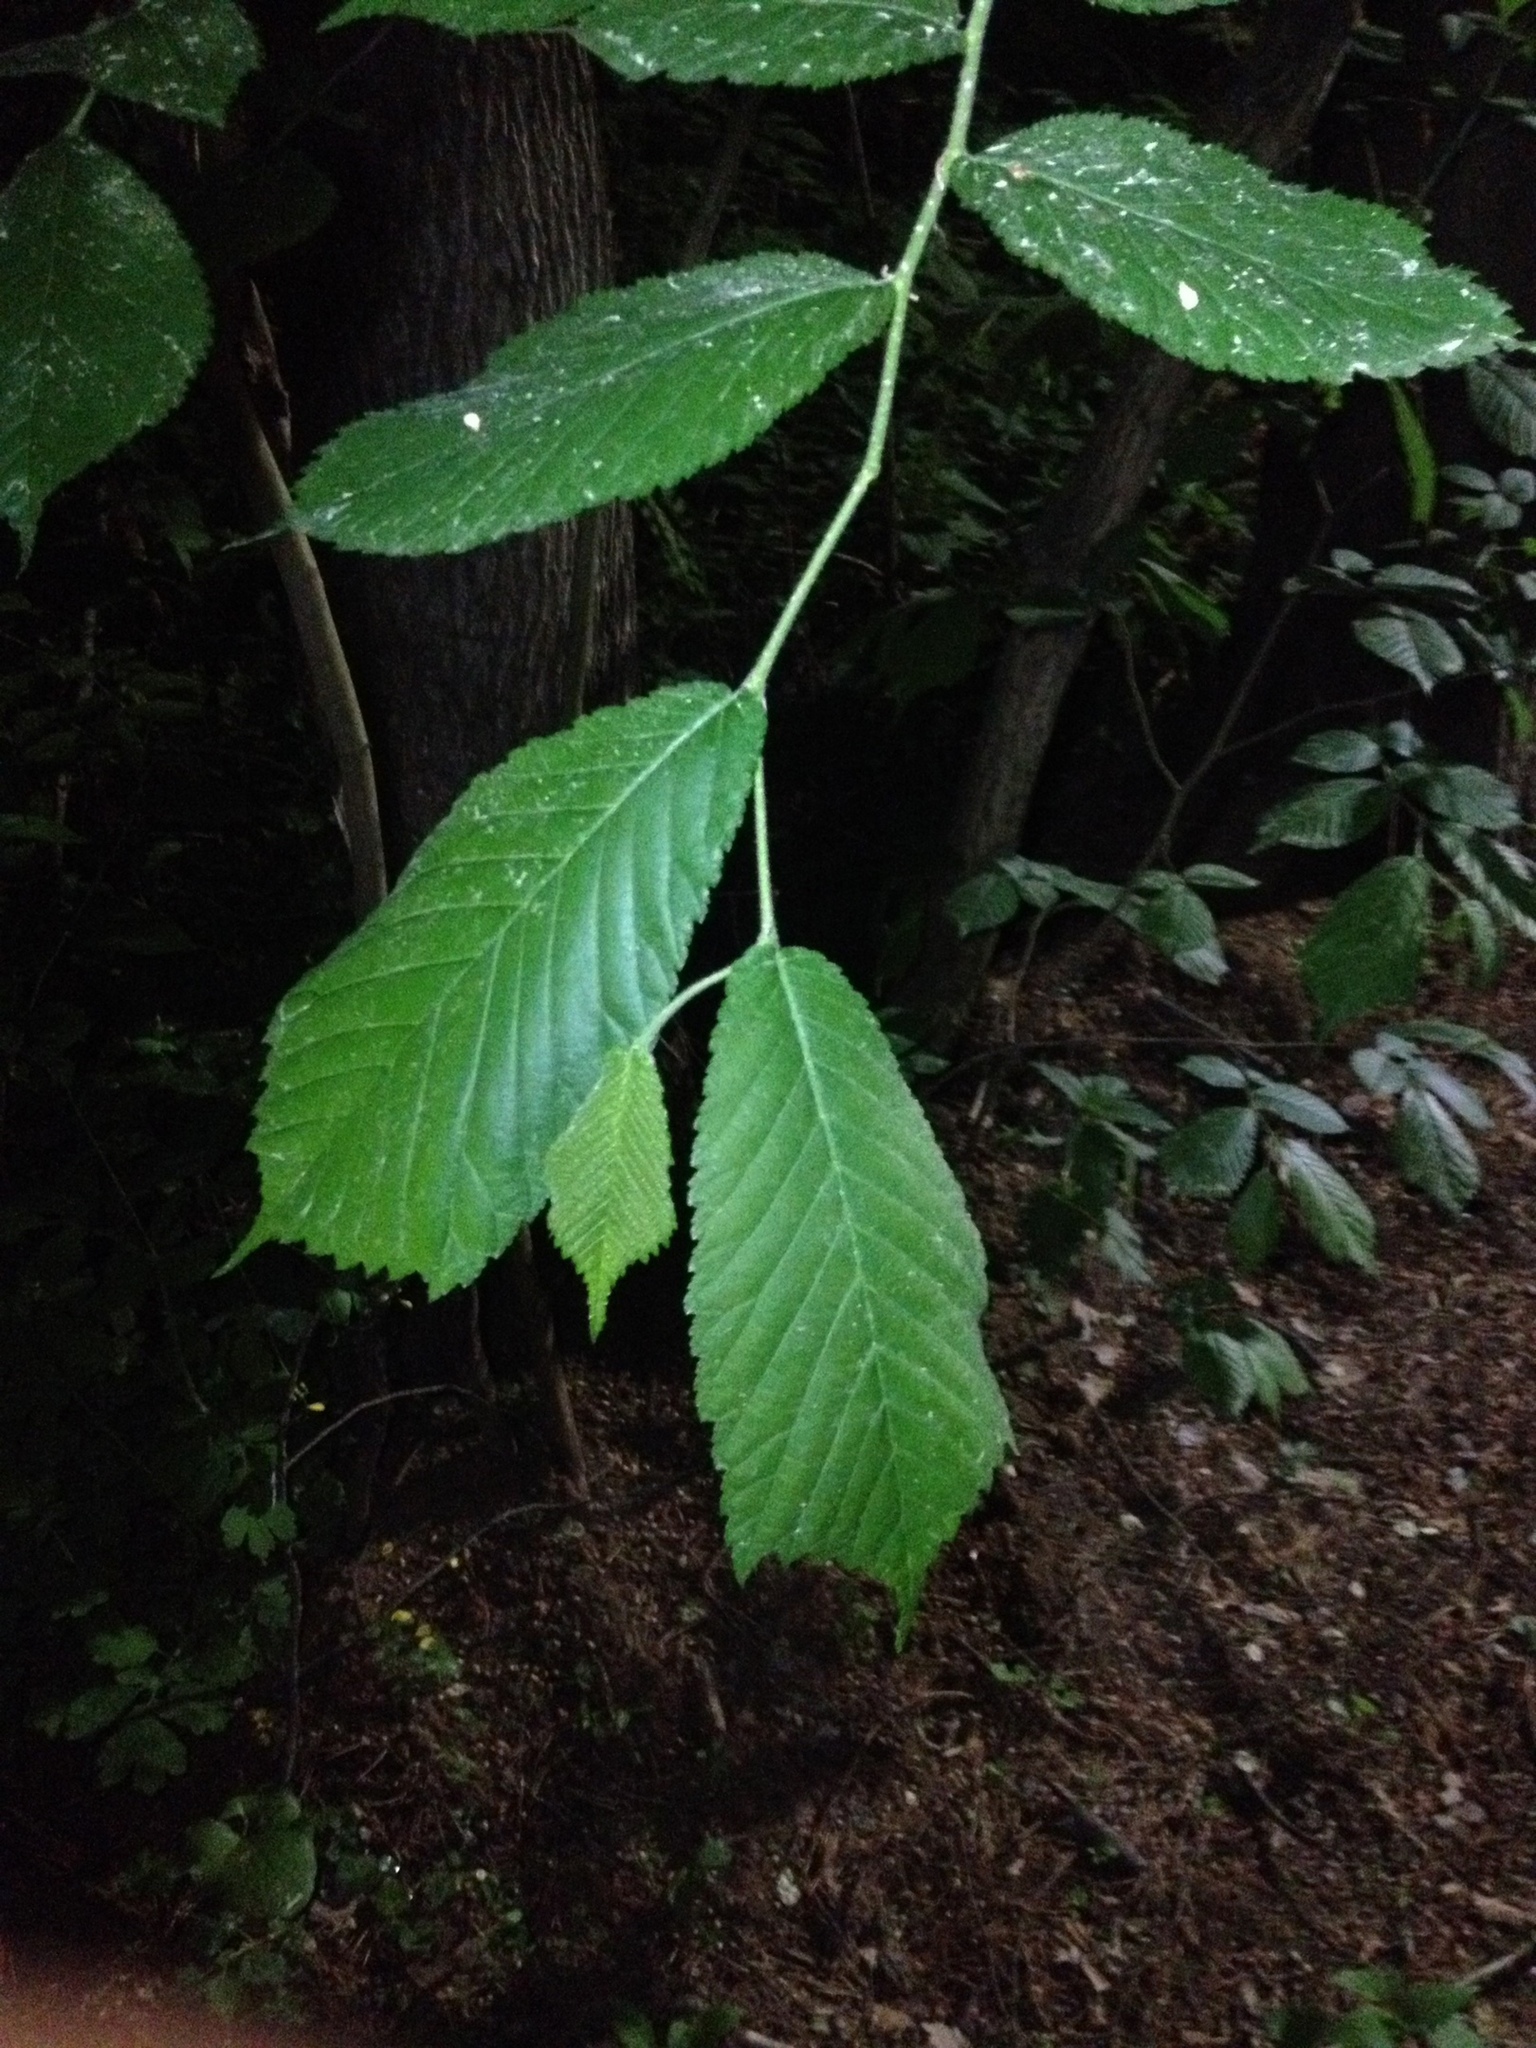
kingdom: Plantae
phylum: Tracheophyta
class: Magnoliopsida
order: Rosales
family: Ulmaceae
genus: Ulmus
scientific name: Ulmus glabra
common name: Wych elm
